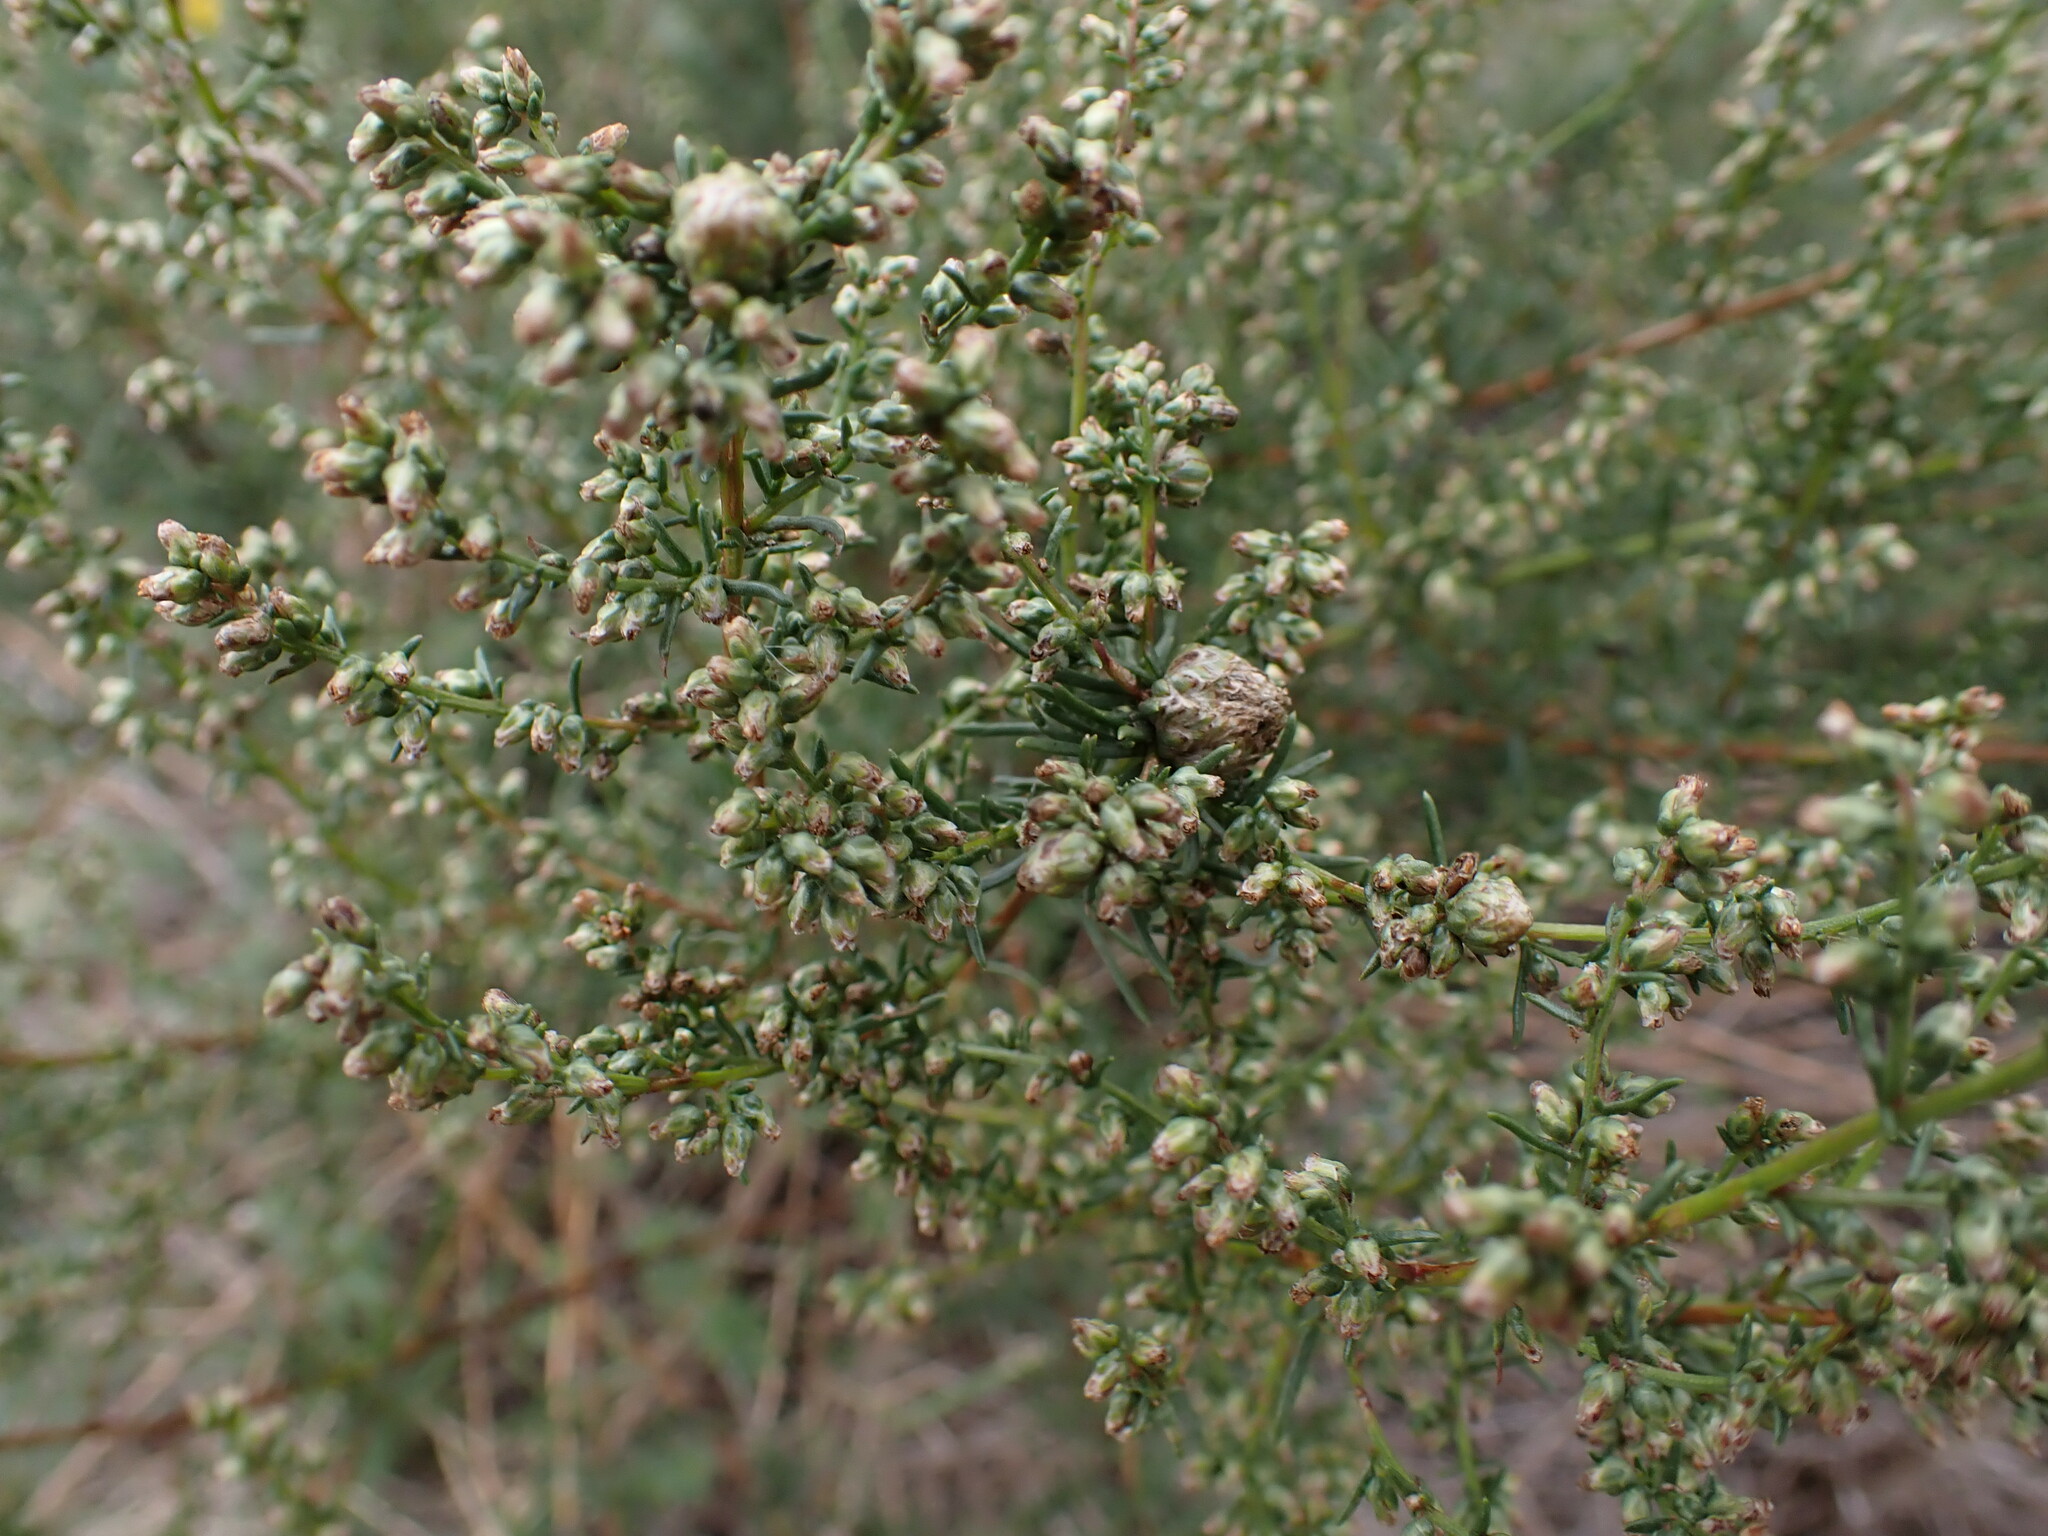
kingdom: Animalia
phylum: Arthropoda
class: Insecta
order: Diptera
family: Cecidomyiidae
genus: Rhopalomyia
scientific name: Rhopalomyia artemisiae
